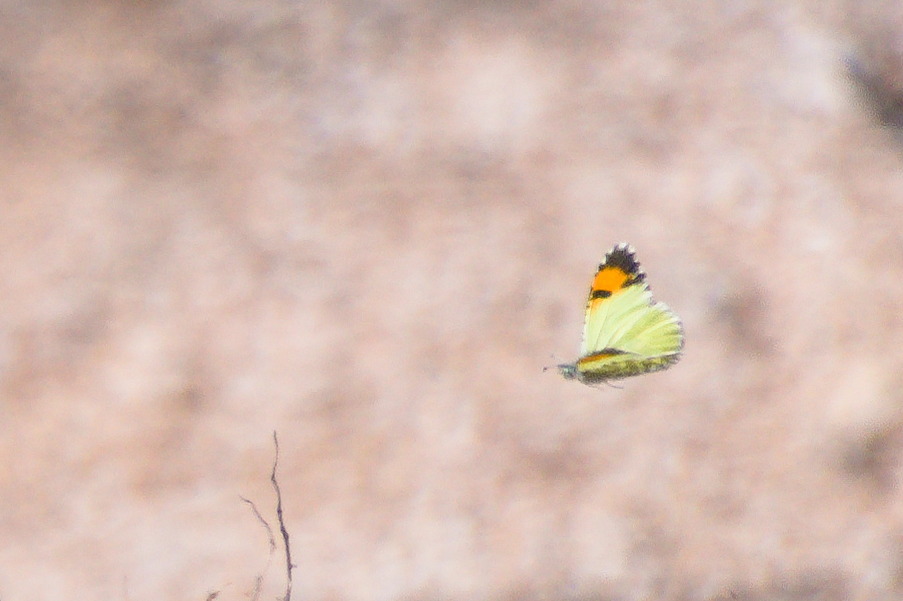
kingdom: Animalia
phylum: Arthropoda
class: Insecta
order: Lepidoptera
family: Pieridae
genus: Anthocharis
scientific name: Anthocharis cethura
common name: Desert orangetip
